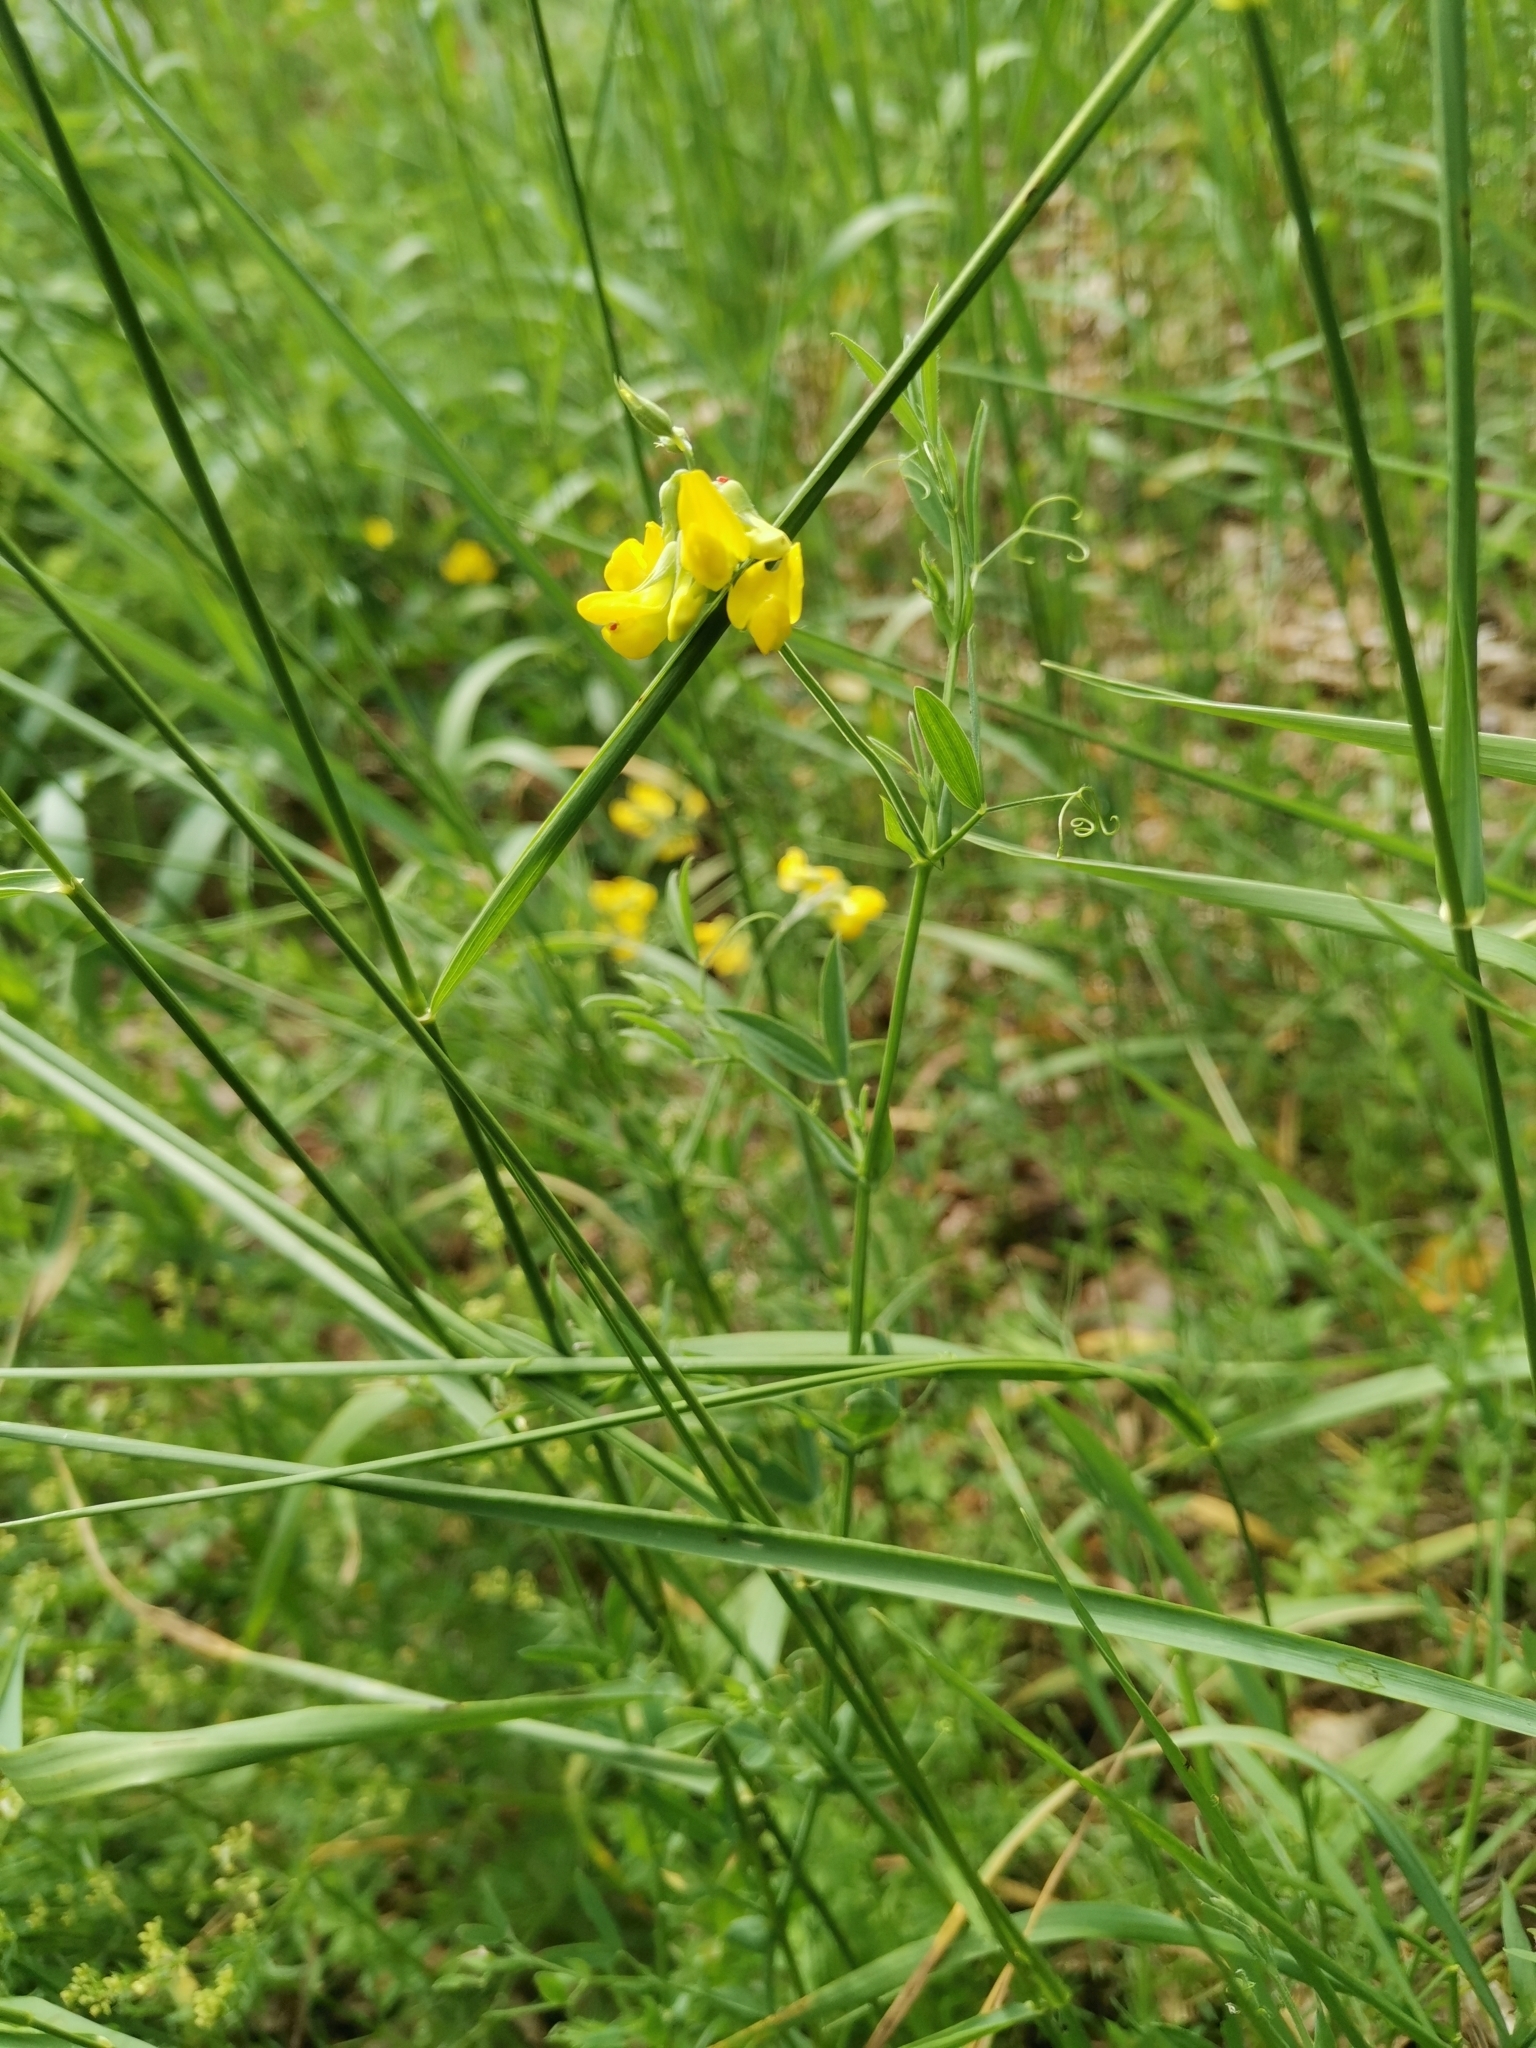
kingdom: Plantae
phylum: Tracheophyta
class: Magnoliopsida
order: Fabales
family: Fabaceae
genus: Lathyrus
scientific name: Lathyrus pratensis
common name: Meadow vetchling
